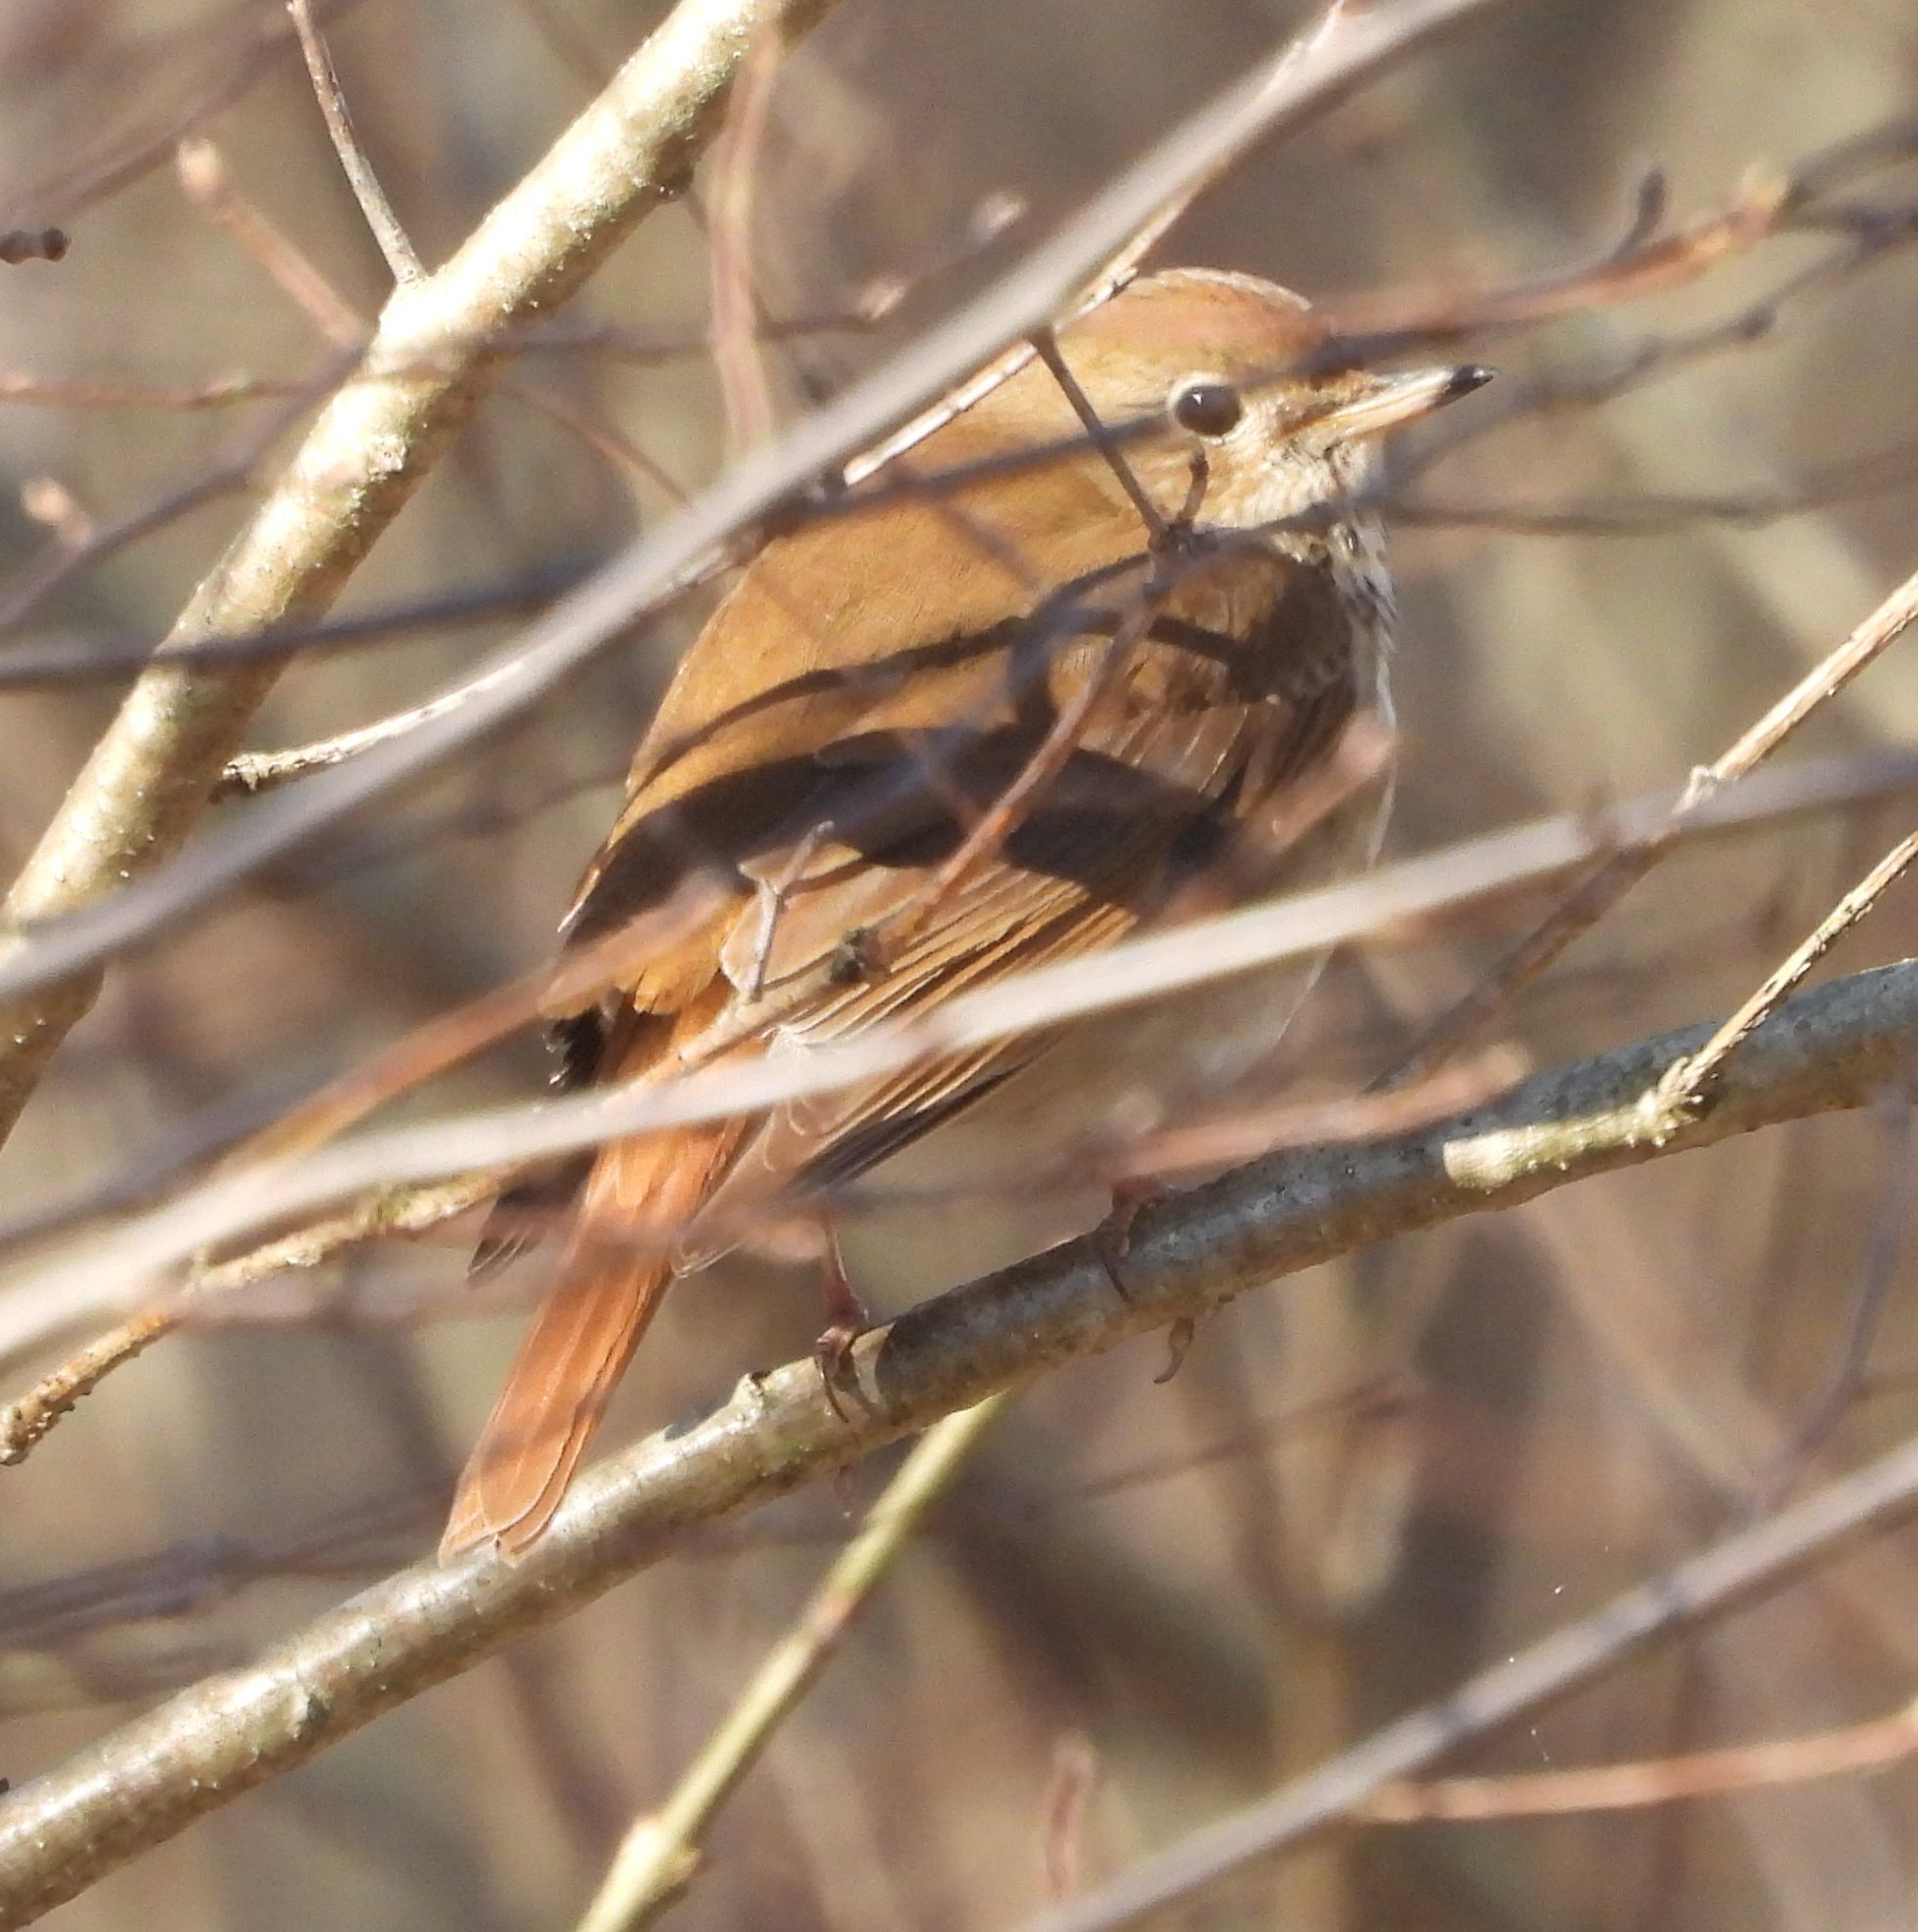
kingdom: Animalia
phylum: Chordata
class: Aves
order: Passeriformes
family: Turdidae
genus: Catharus
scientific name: Catharus guttatus
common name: Hermit thrush
